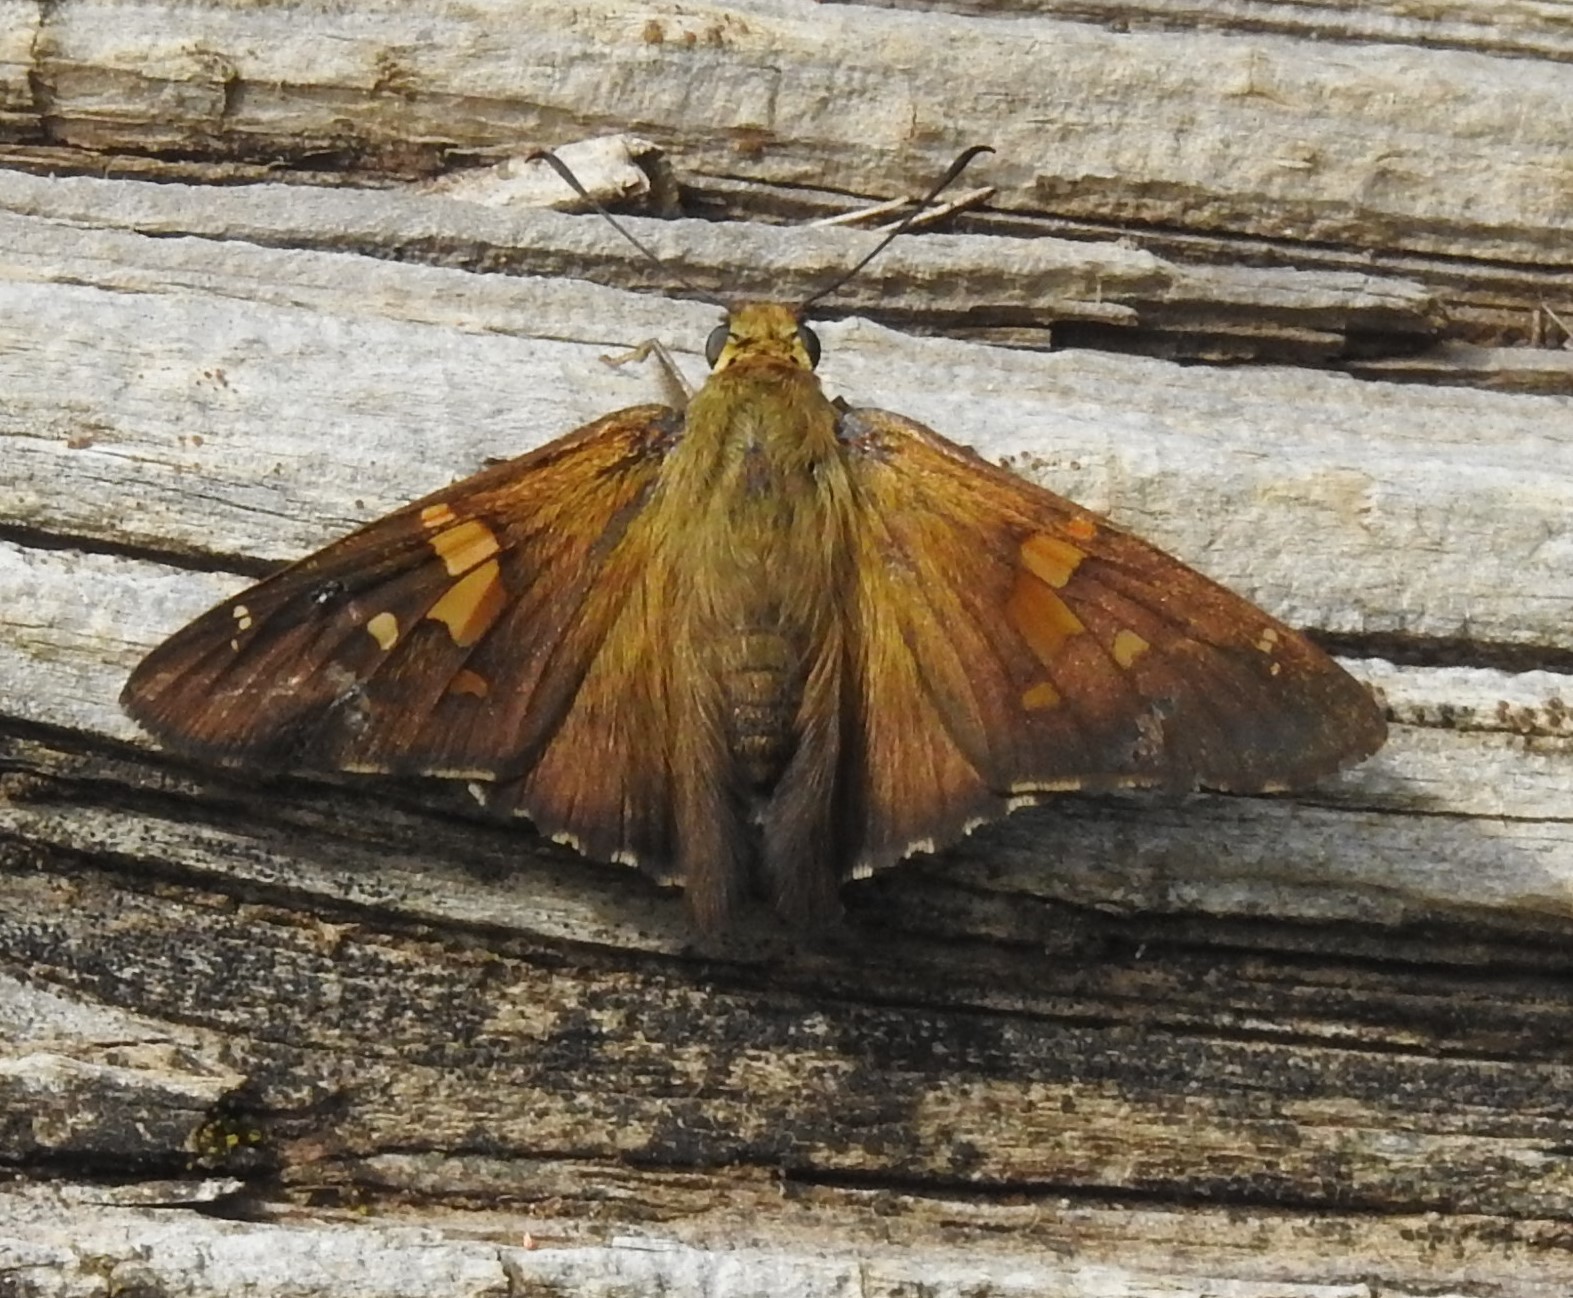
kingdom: Animalia
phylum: Arthropoda
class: Insecta
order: Lepidoptera
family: Hesperiidae
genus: Epargyreus
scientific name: Epargyreus clarus
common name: Silver-spotted skipper
